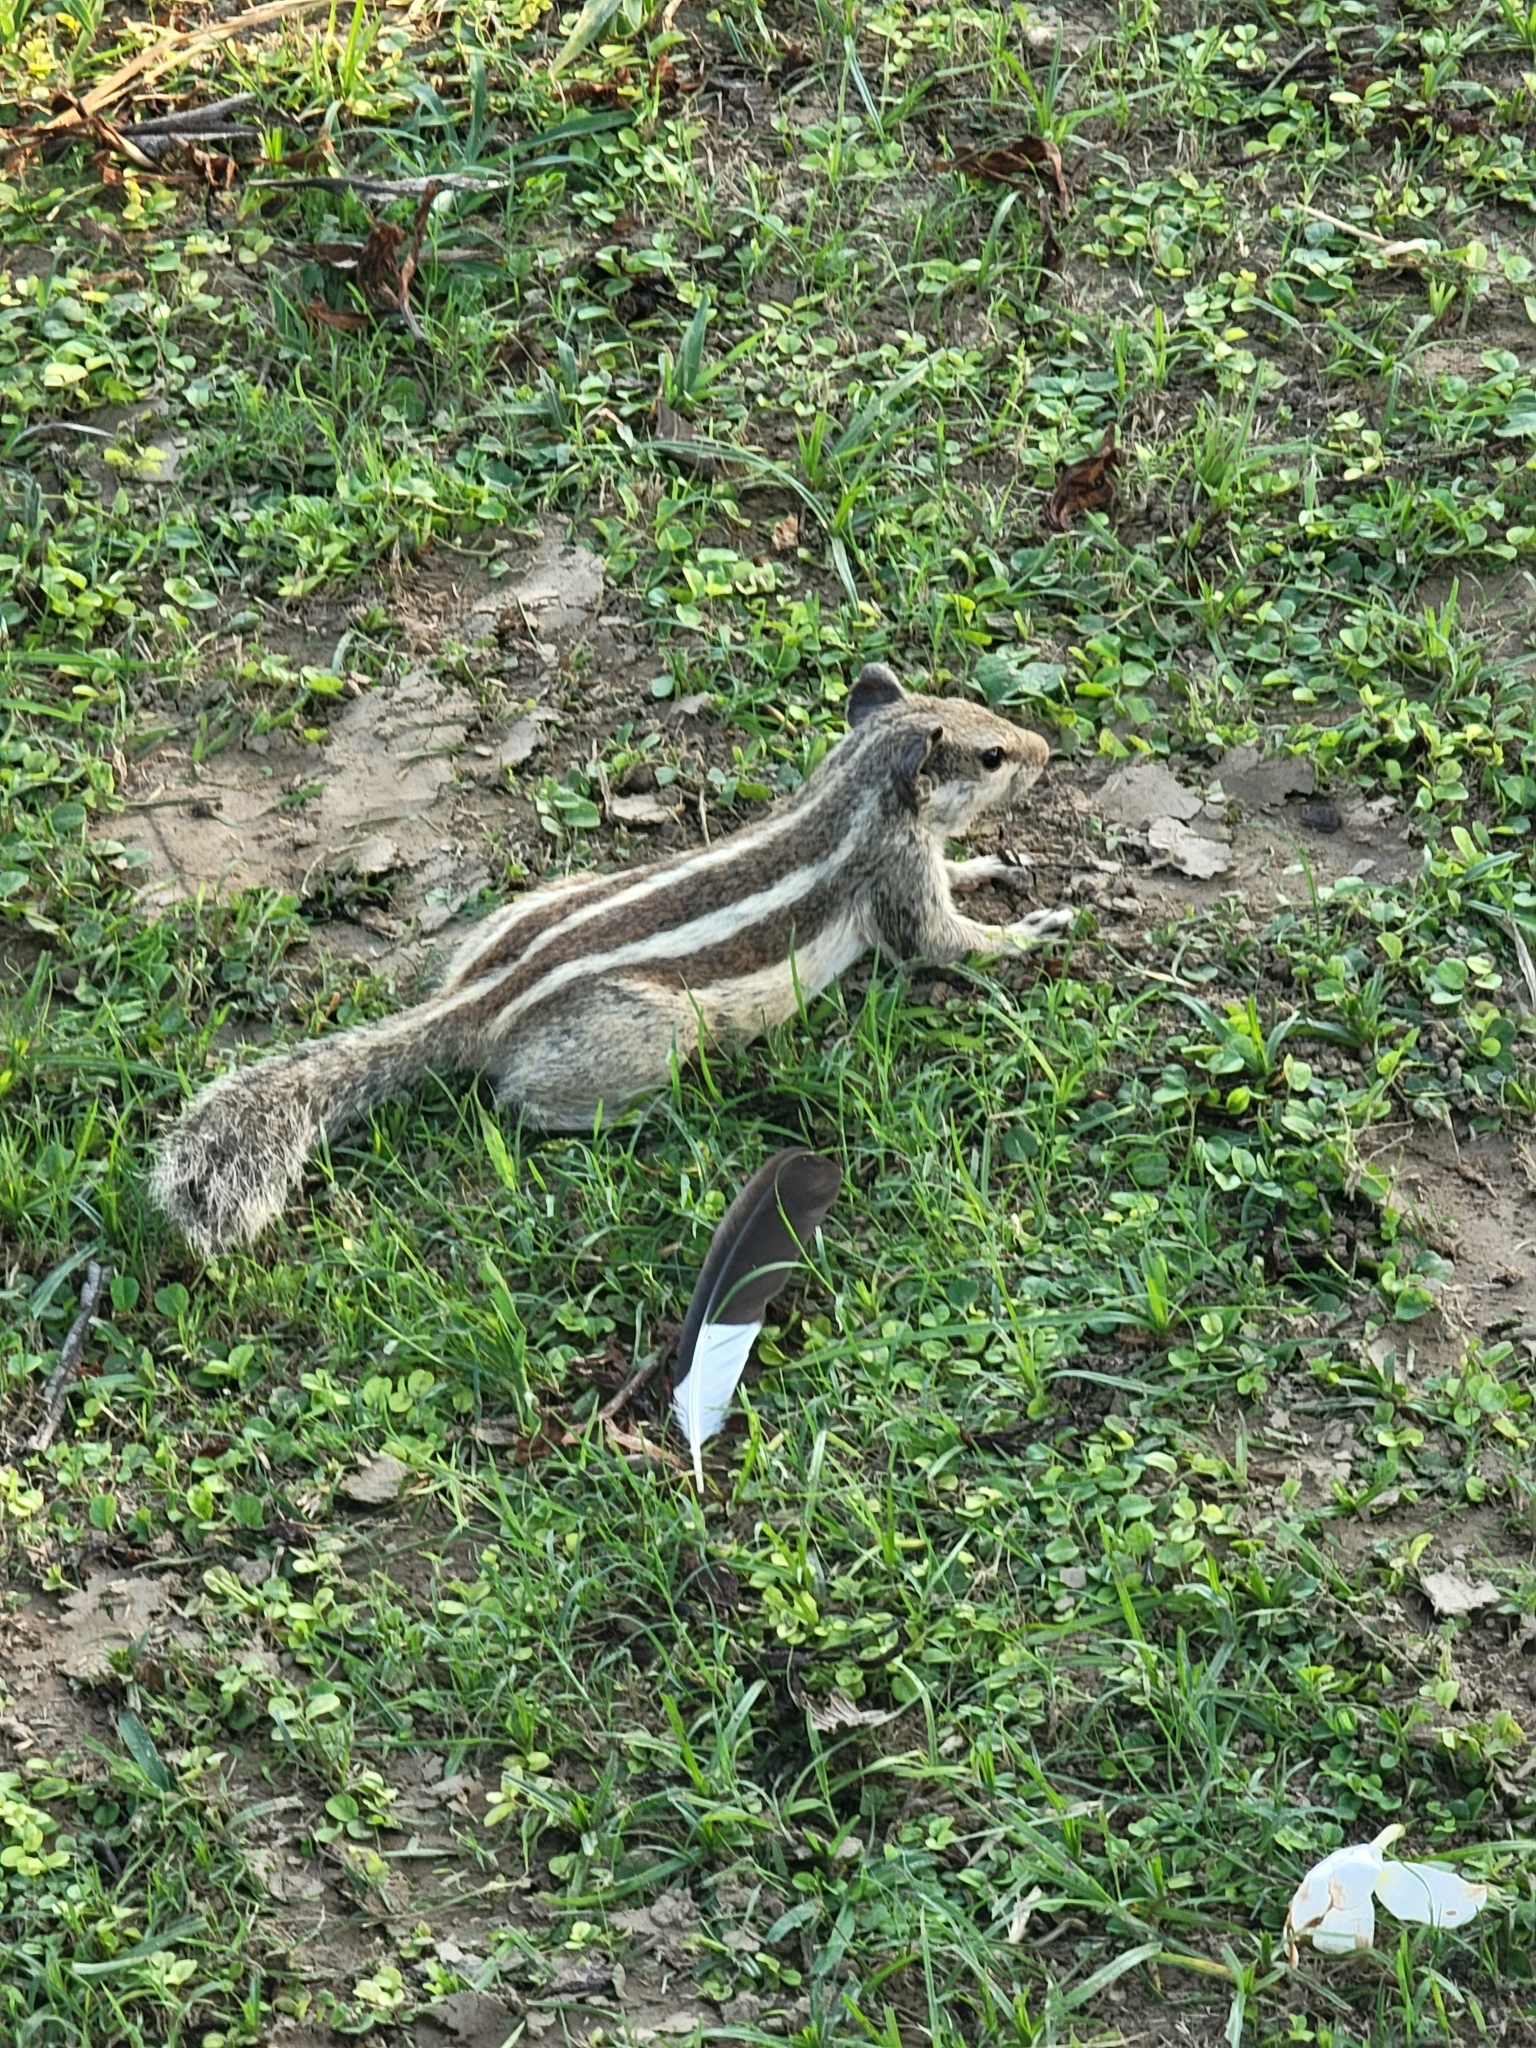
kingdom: Animalia
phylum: Chordata
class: Mammalia
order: Rodentia
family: Sciuridae
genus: Funambulus
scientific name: Funambulus pennantii
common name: Northern palm squirrel
